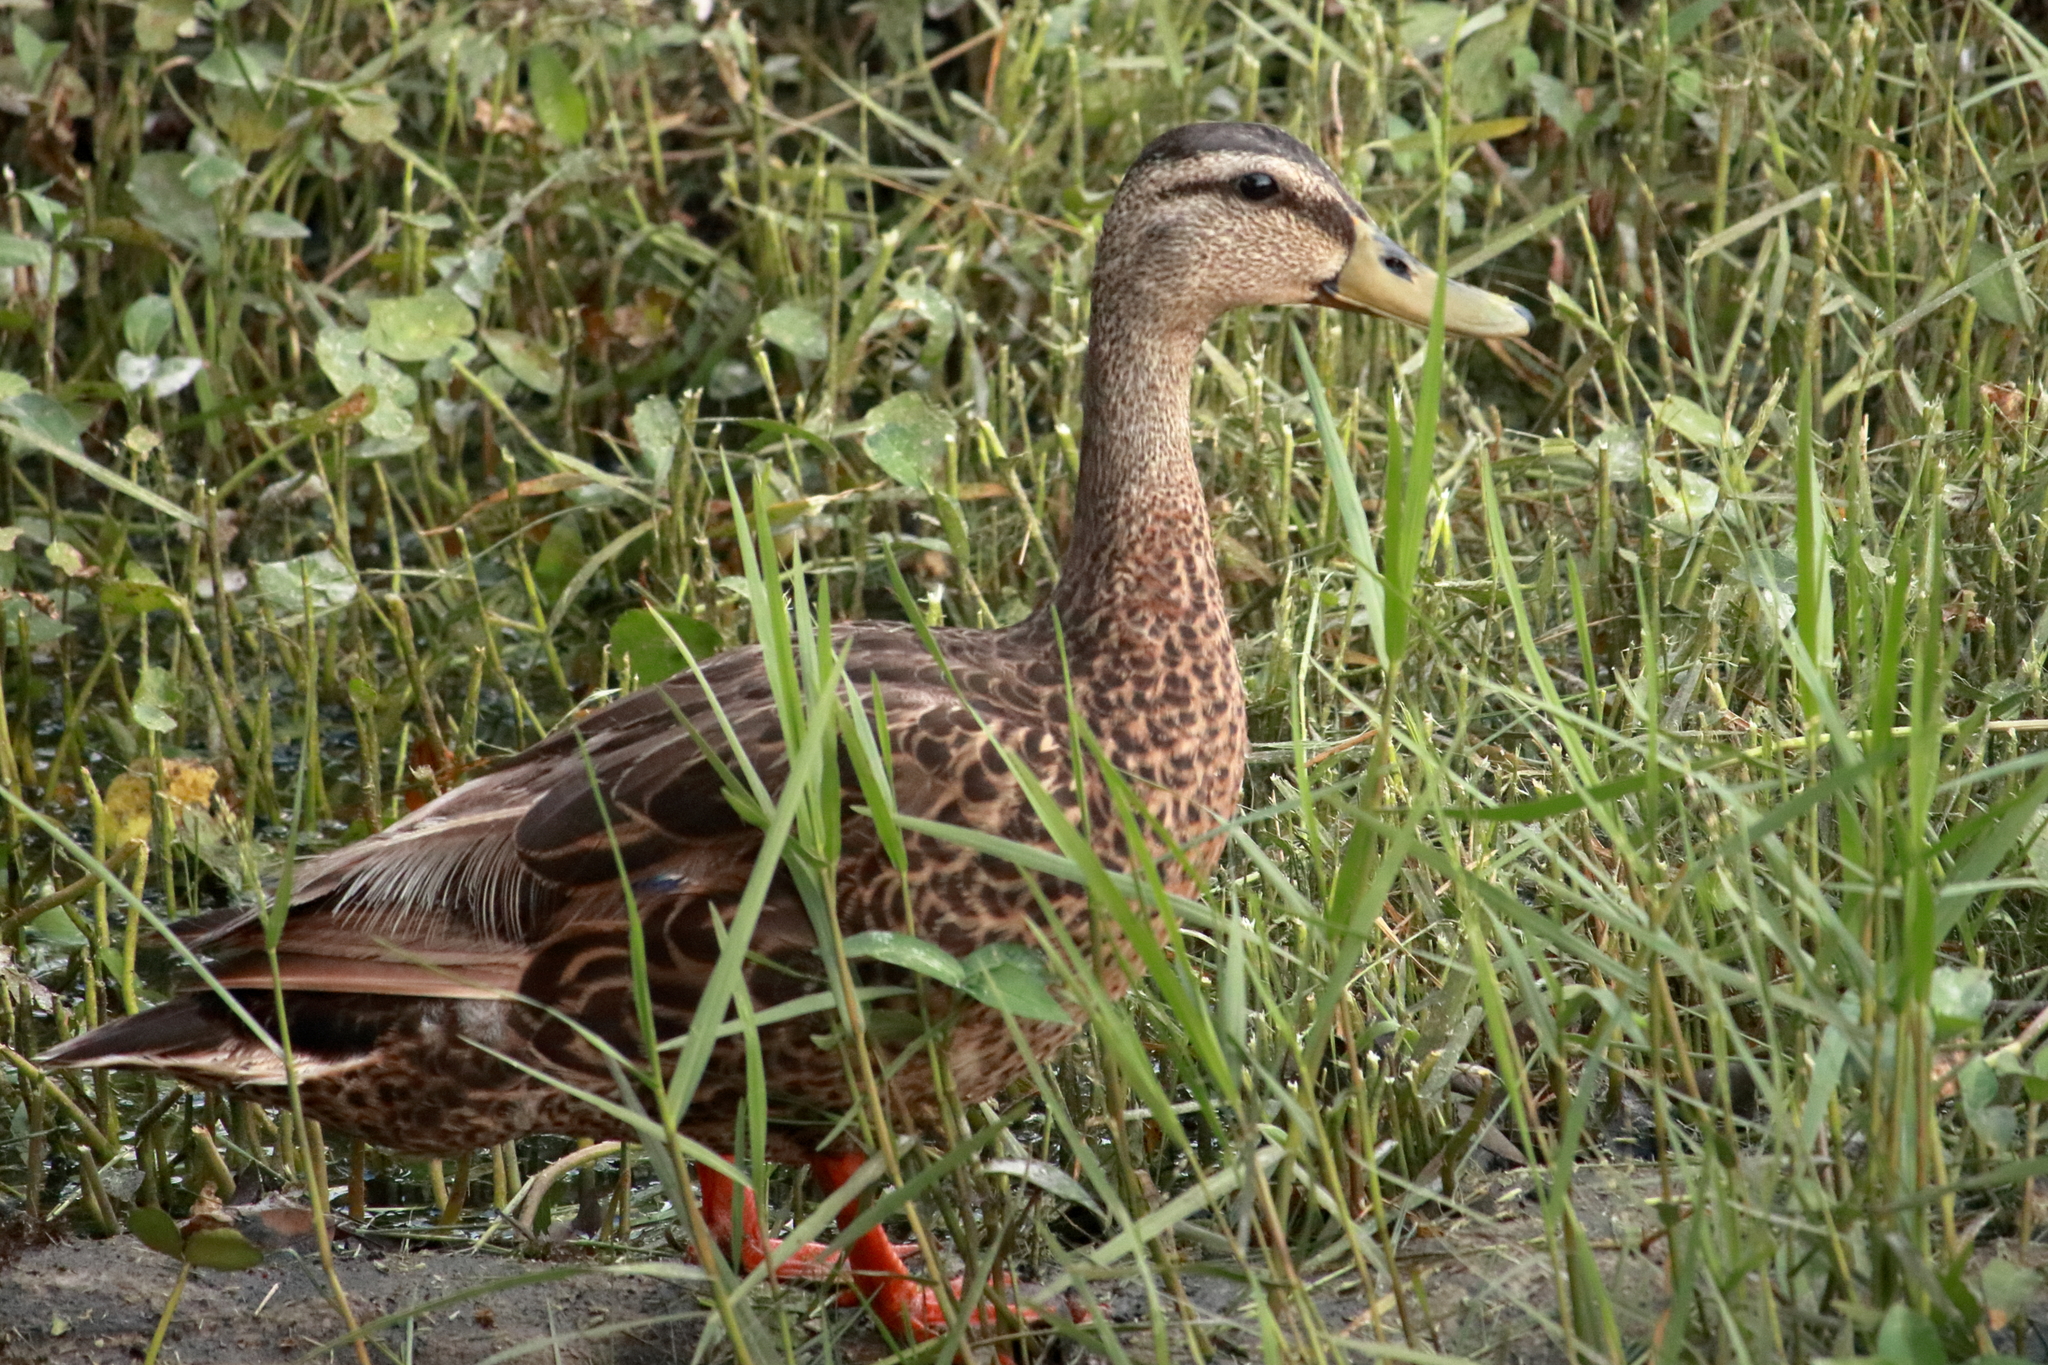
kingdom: Animalia
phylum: Chordata
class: Aves
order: Anseriformes
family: Anatidae
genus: Anas
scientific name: Anas
